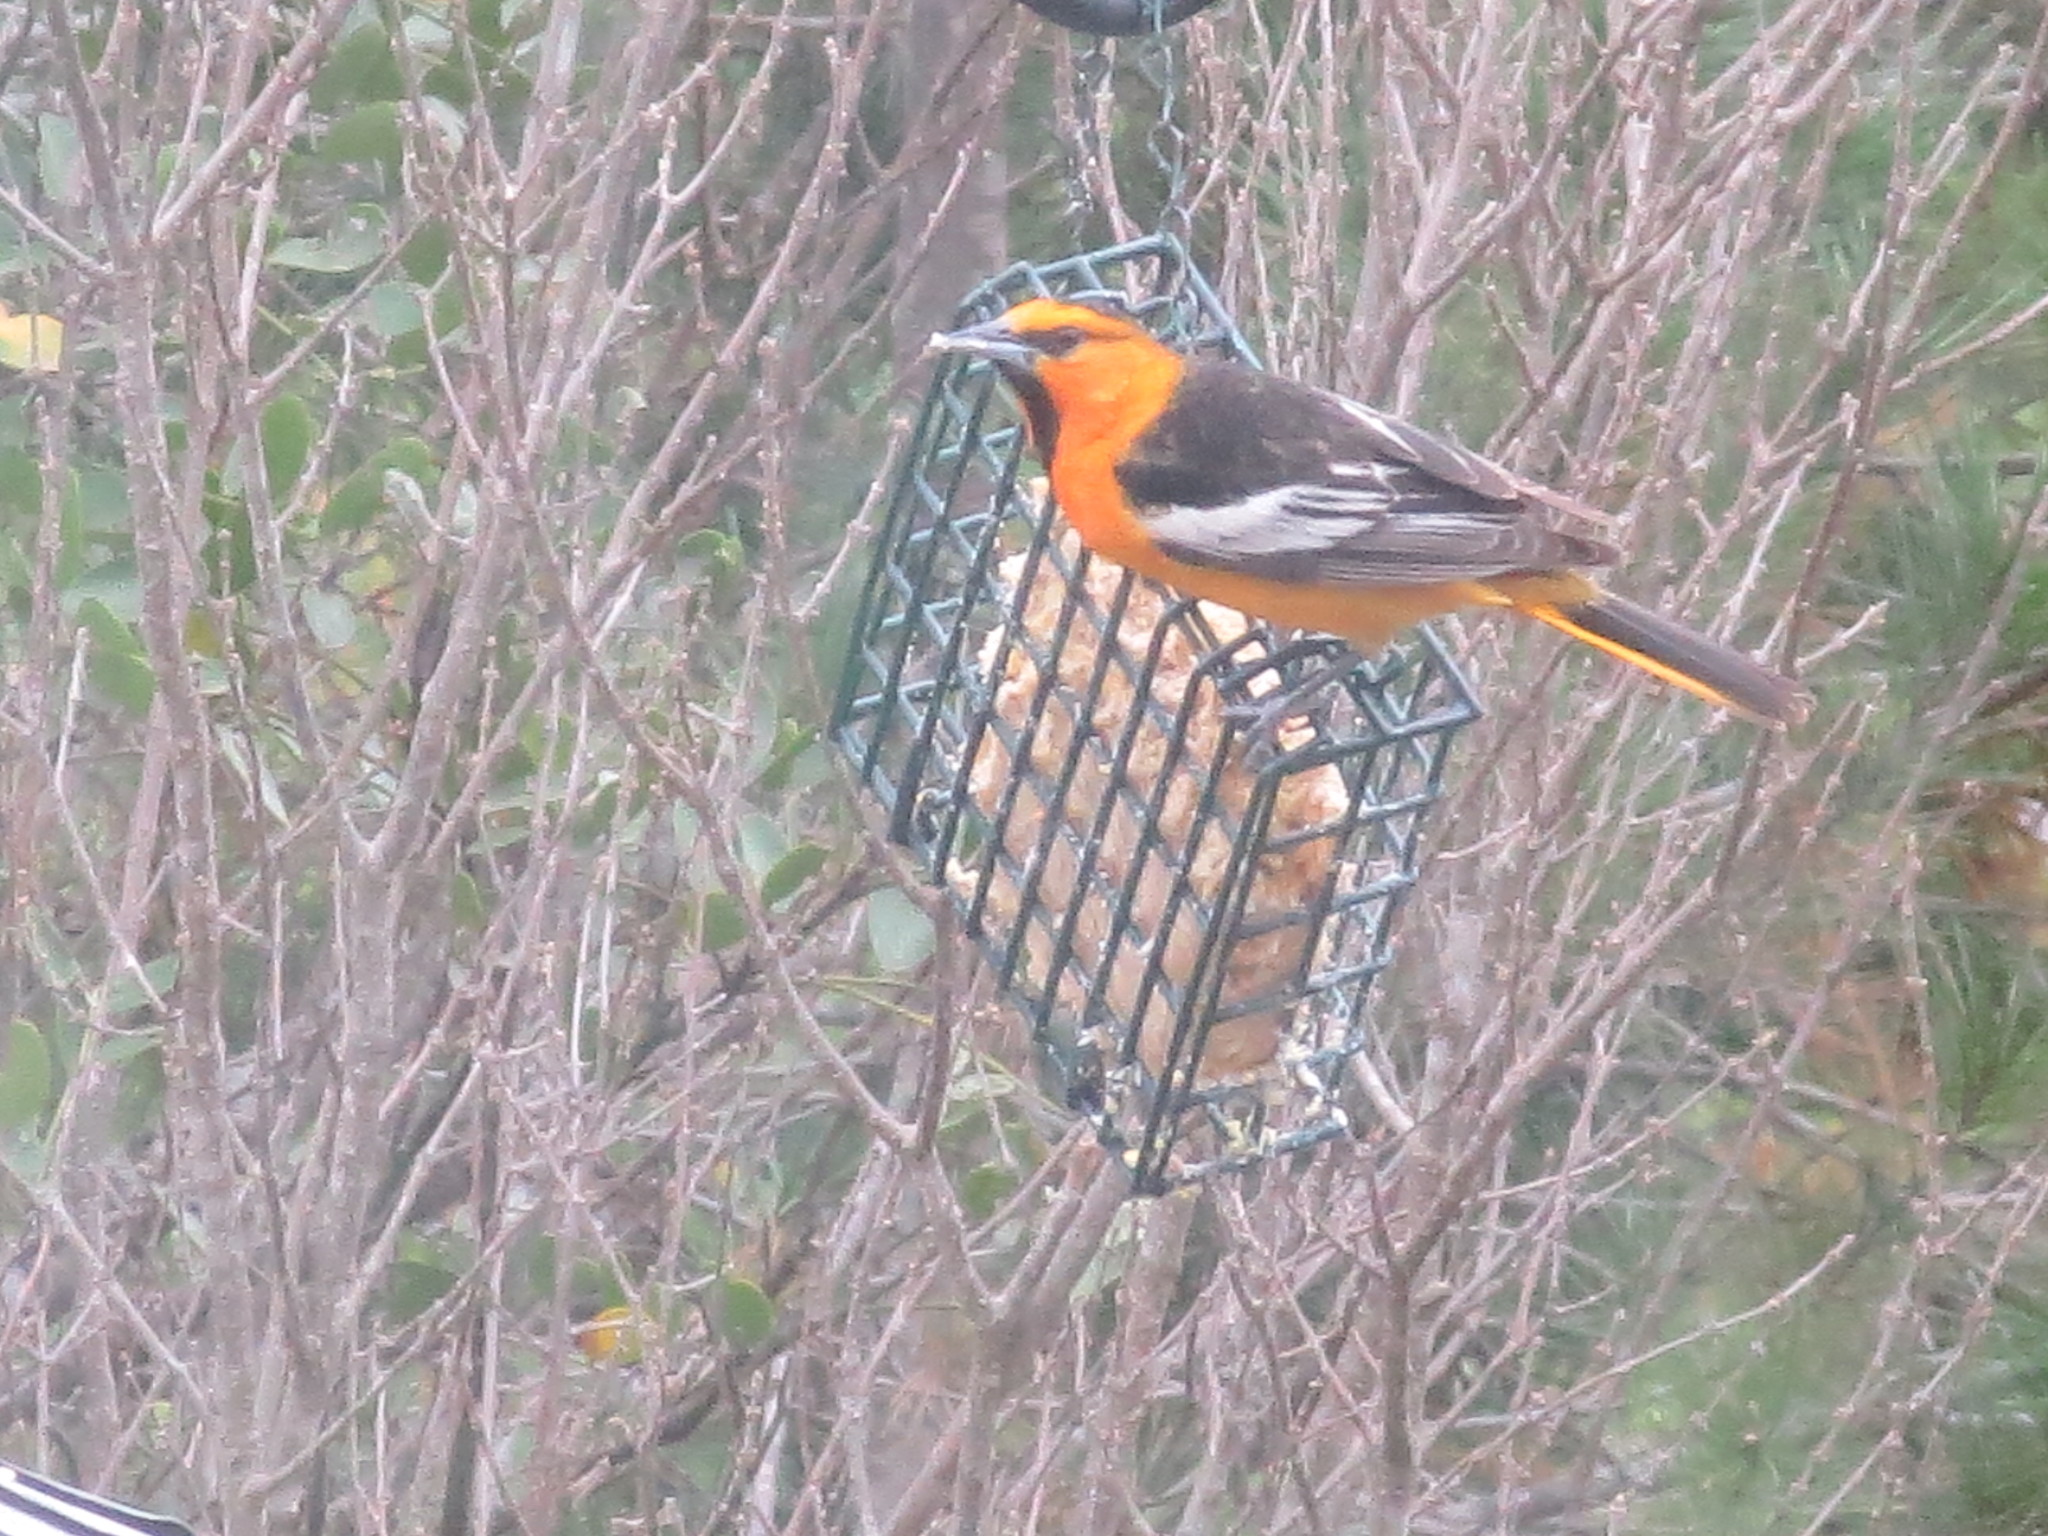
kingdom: Animalia
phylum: Chordata
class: Aves
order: Passeriformes
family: Icteridae
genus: Icterus
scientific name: Icterus bullockii
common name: Bullock's oriole
